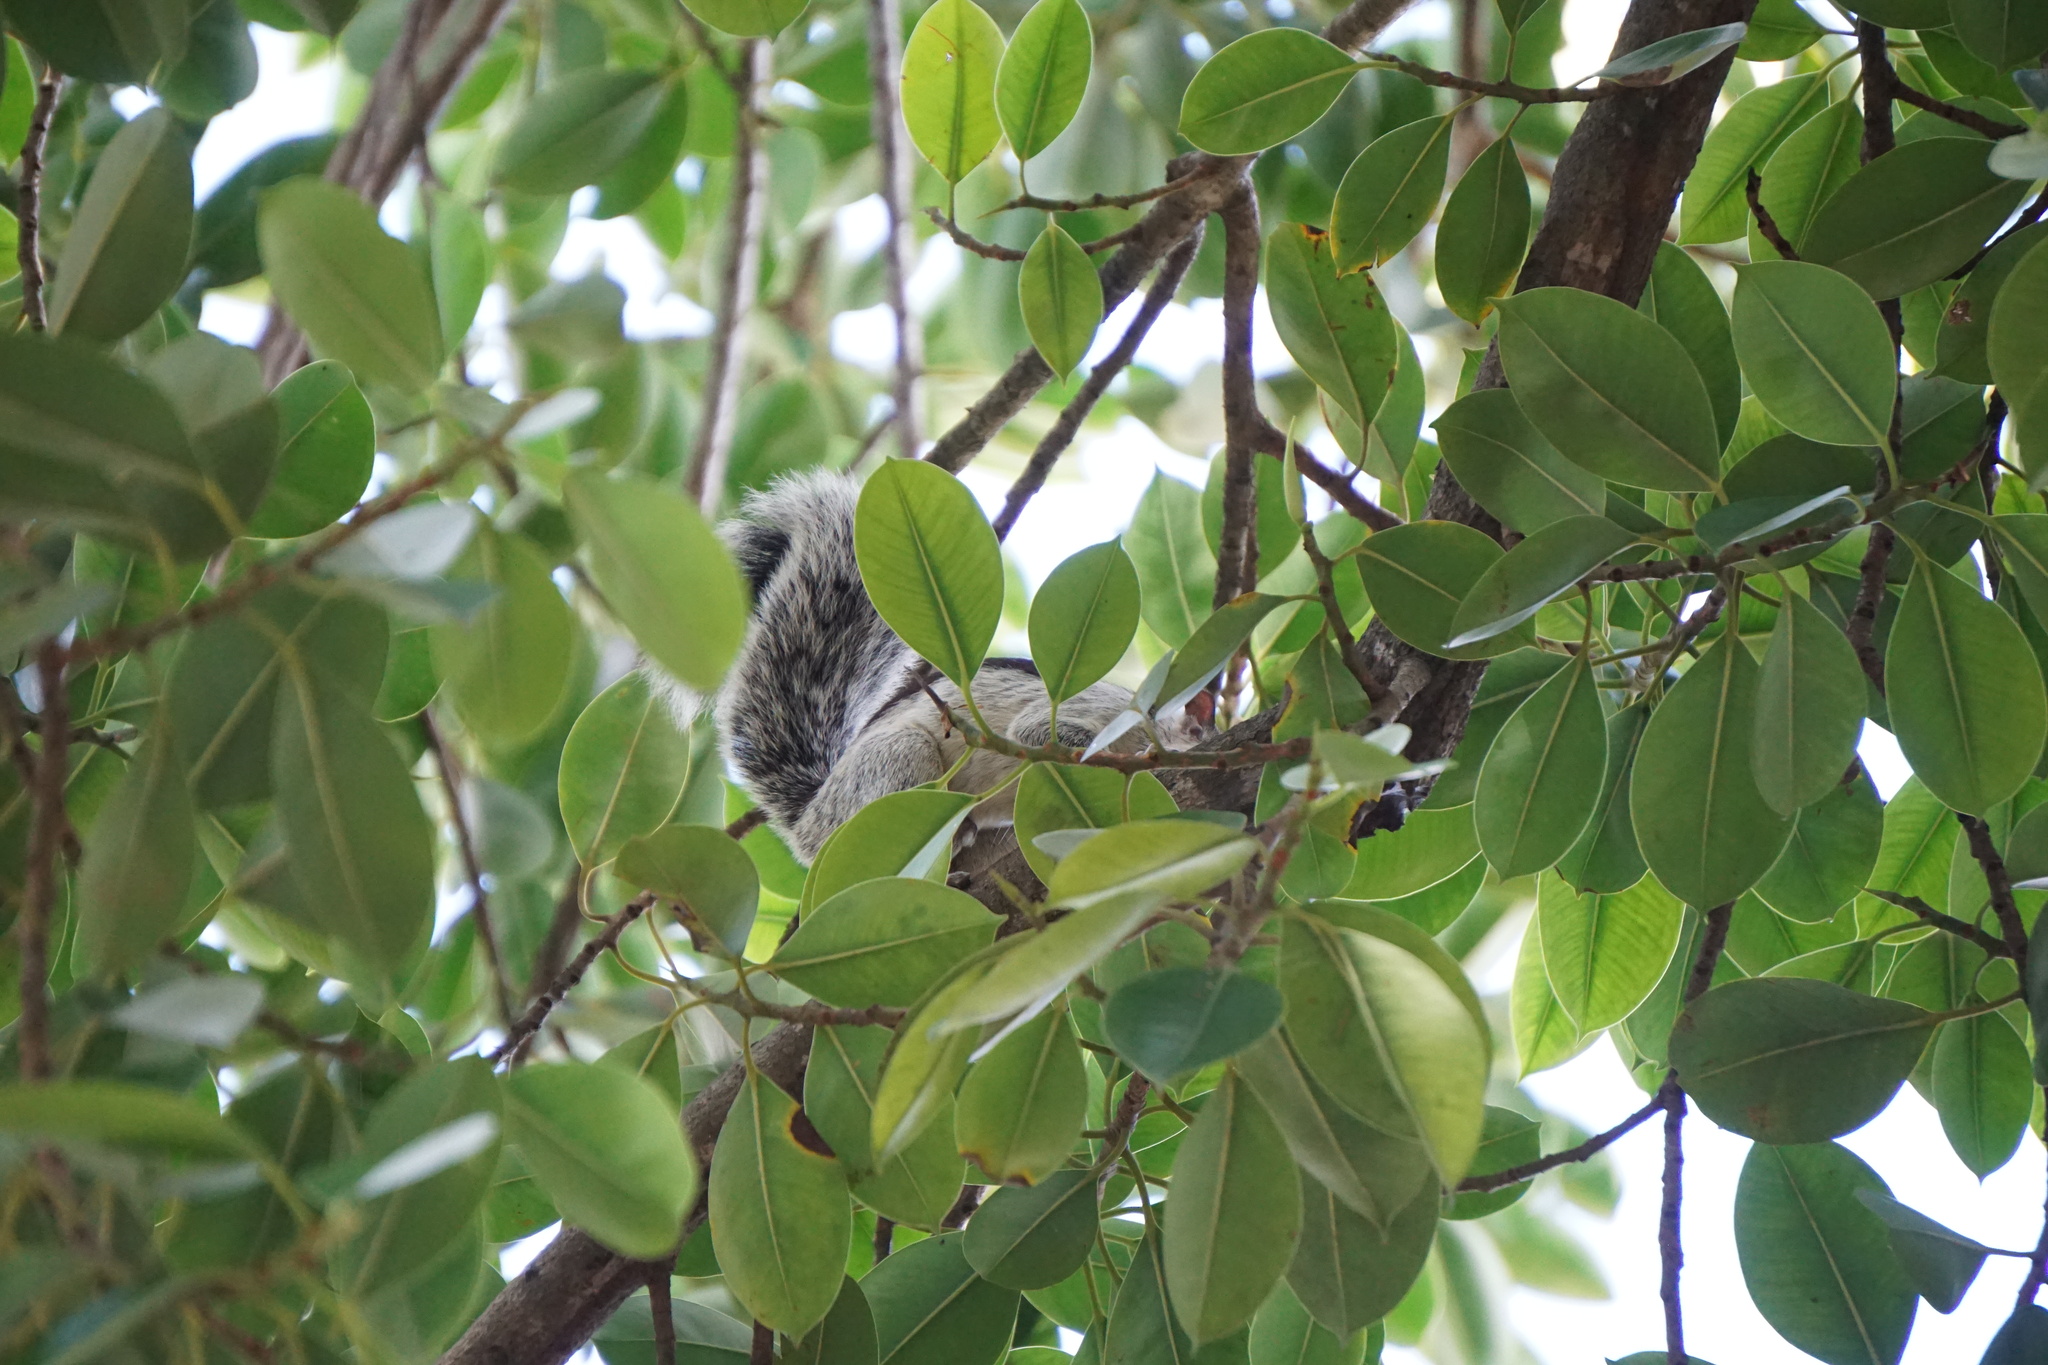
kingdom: Animalia
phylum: Chordata
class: Mammalia
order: Rodentia
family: Sciuridae
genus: Sciurus
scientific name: Sciurus variegatoides
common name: Variegated squirrel
